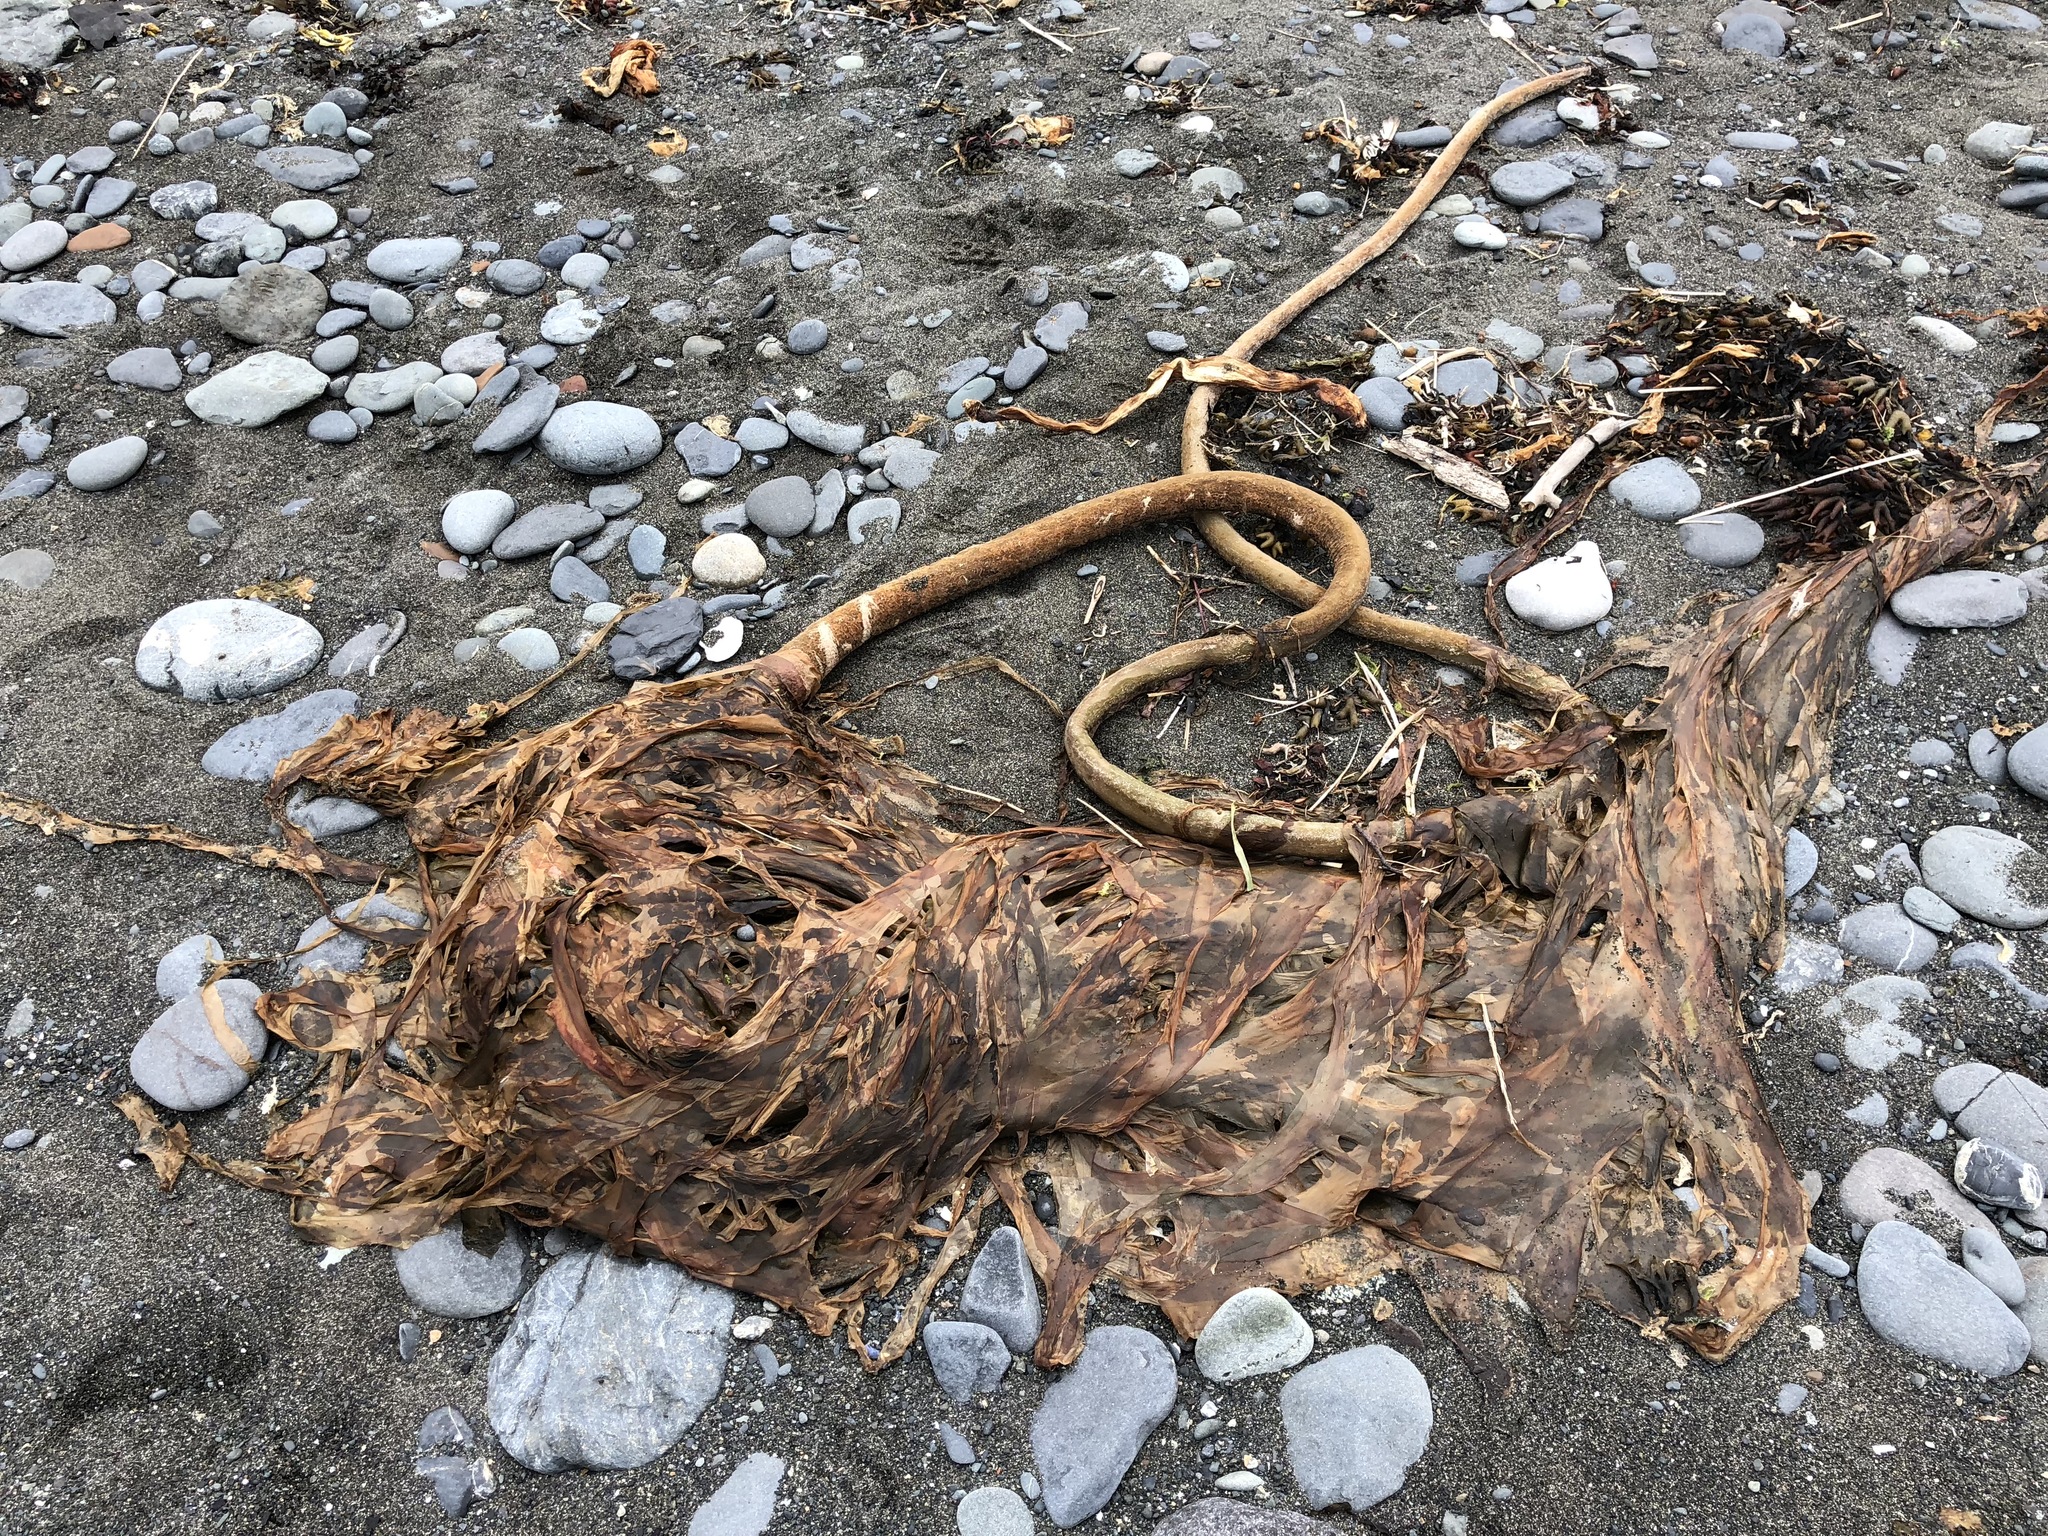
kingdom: Chromista
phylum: Ochrophyta
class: Phaeophyceae
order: Laminariales
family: Laminariaceae
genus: Nereocystis
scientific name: Nereocystis luetkeana
